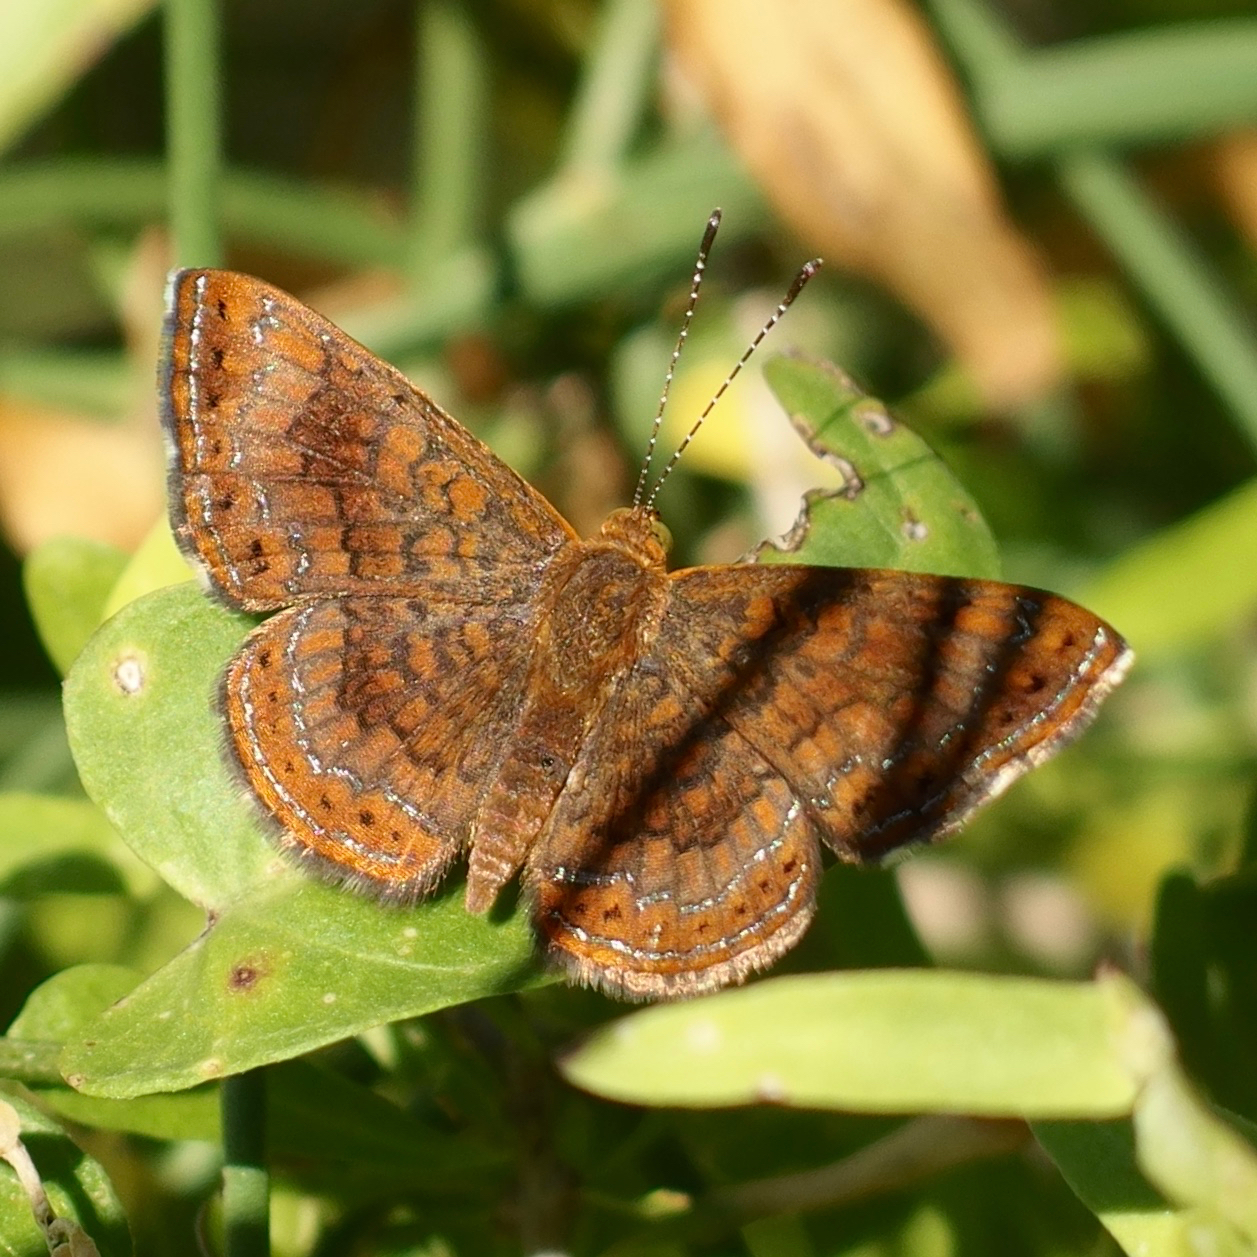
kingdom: Animalia
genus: Calephelis
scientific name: Calephelis nemesis
